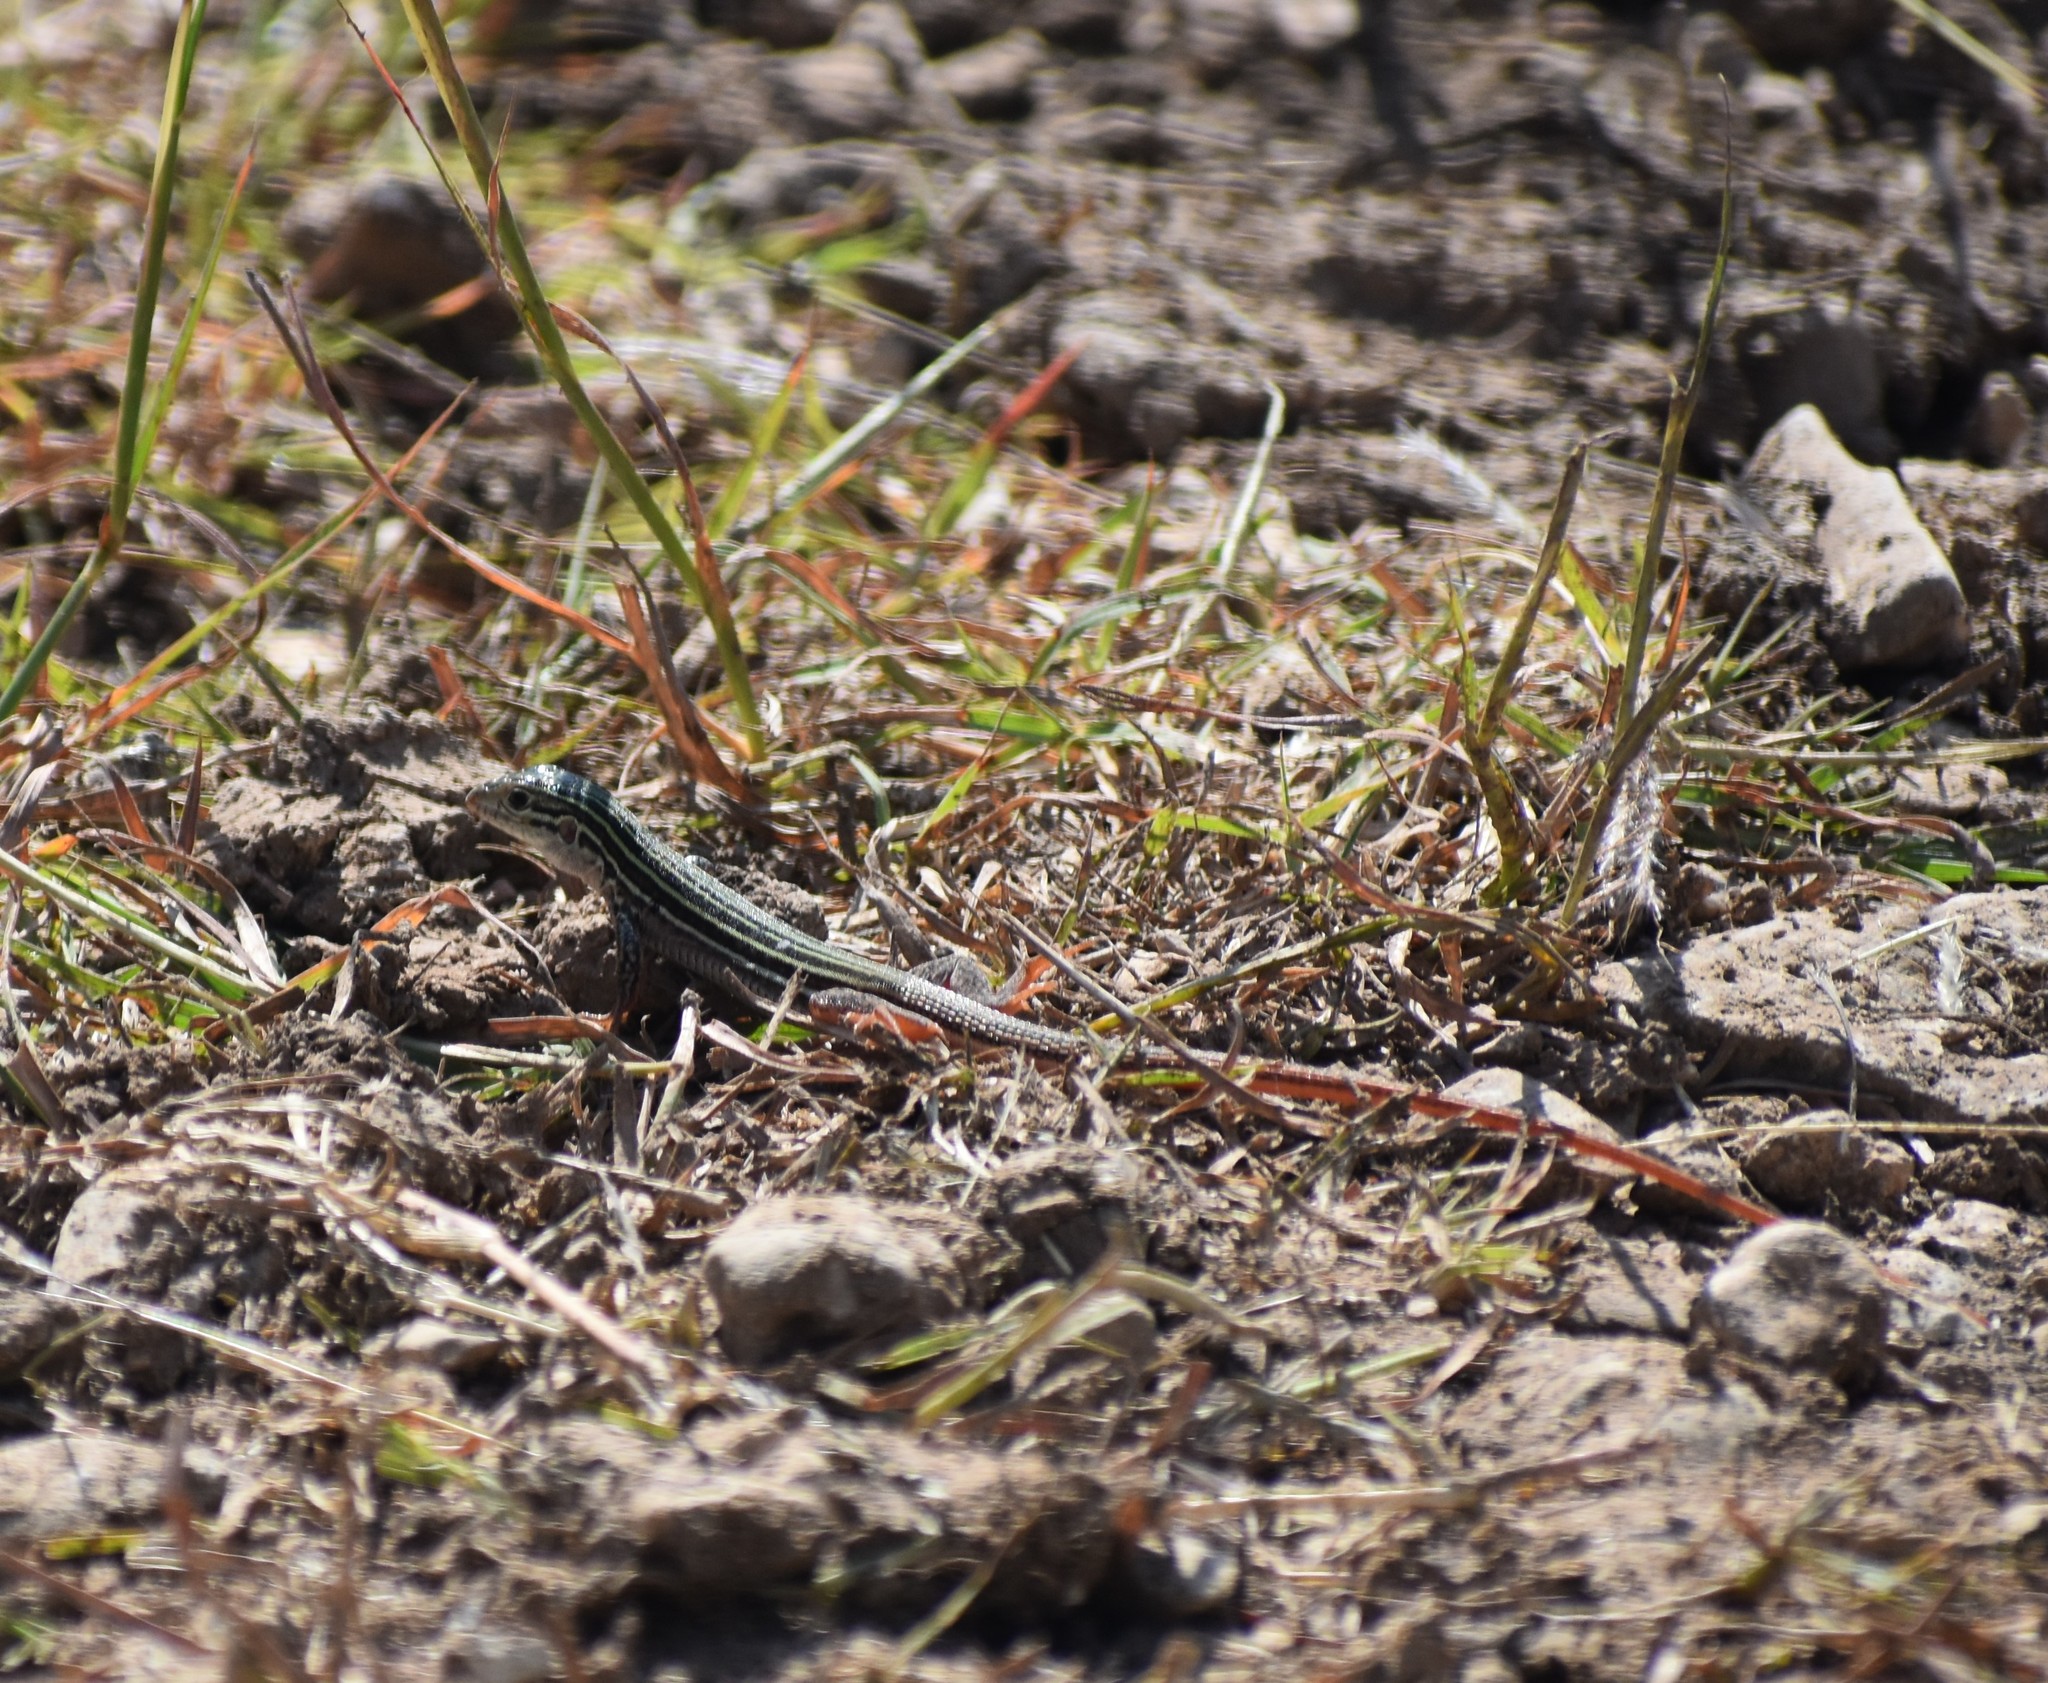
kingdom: Animalia
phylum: Chordata
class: Squamata
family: Teiidae
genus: Aspidoscelis
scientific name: Aspidoscelis gularis
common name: Eastern spotted whiptail
